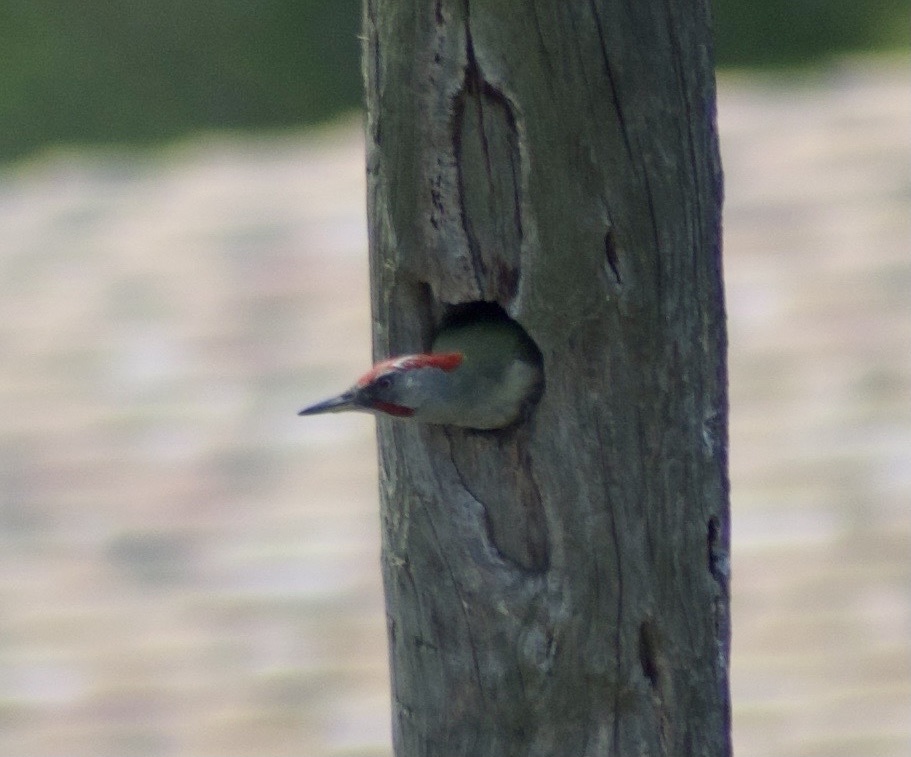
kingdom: Animalia
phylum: Chordata
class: Aves
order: Piciformes
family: Picidae
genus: Picus
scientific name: Picus sharpei
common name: Iberian green woodpecker
